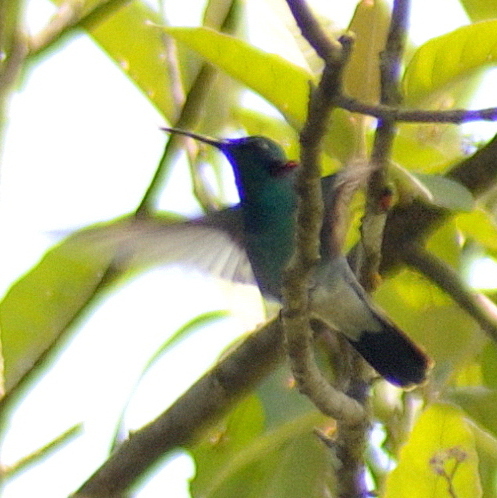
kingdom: Animalia
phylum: Chordata
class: Aves
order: Apodiformes
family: Trochilidae
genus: Colibri
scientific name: Colibri serrirostris
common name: White-vented violetear
